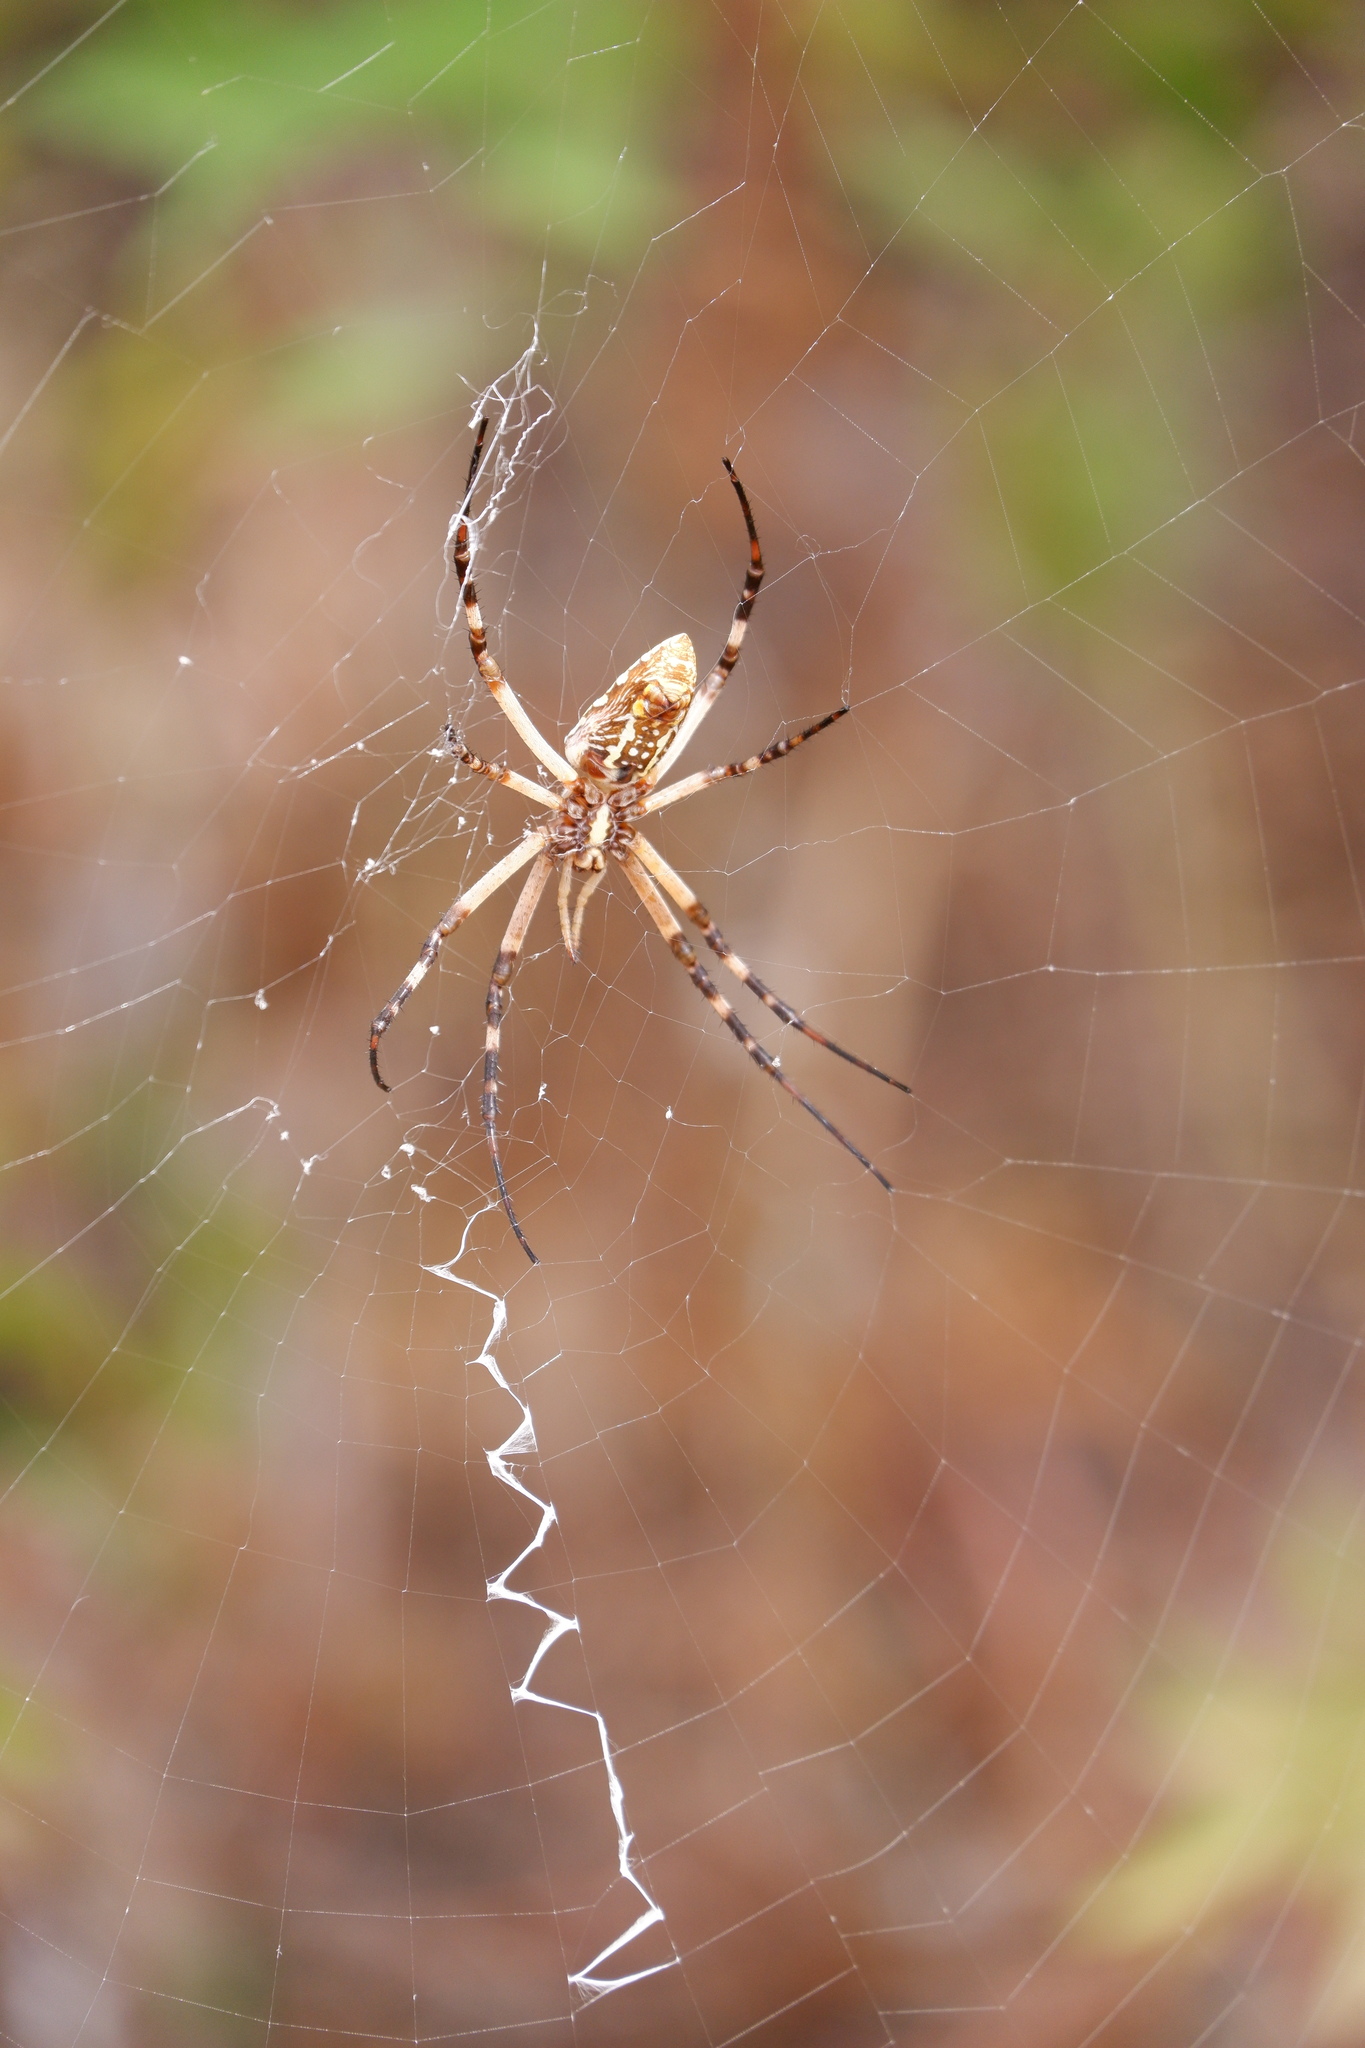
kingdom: Animalia
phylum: Arthropoda
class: Arachnida
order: Araneae
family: Araneidae
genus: Argiope
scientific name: Argiope aurantia
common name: Orb weavers
